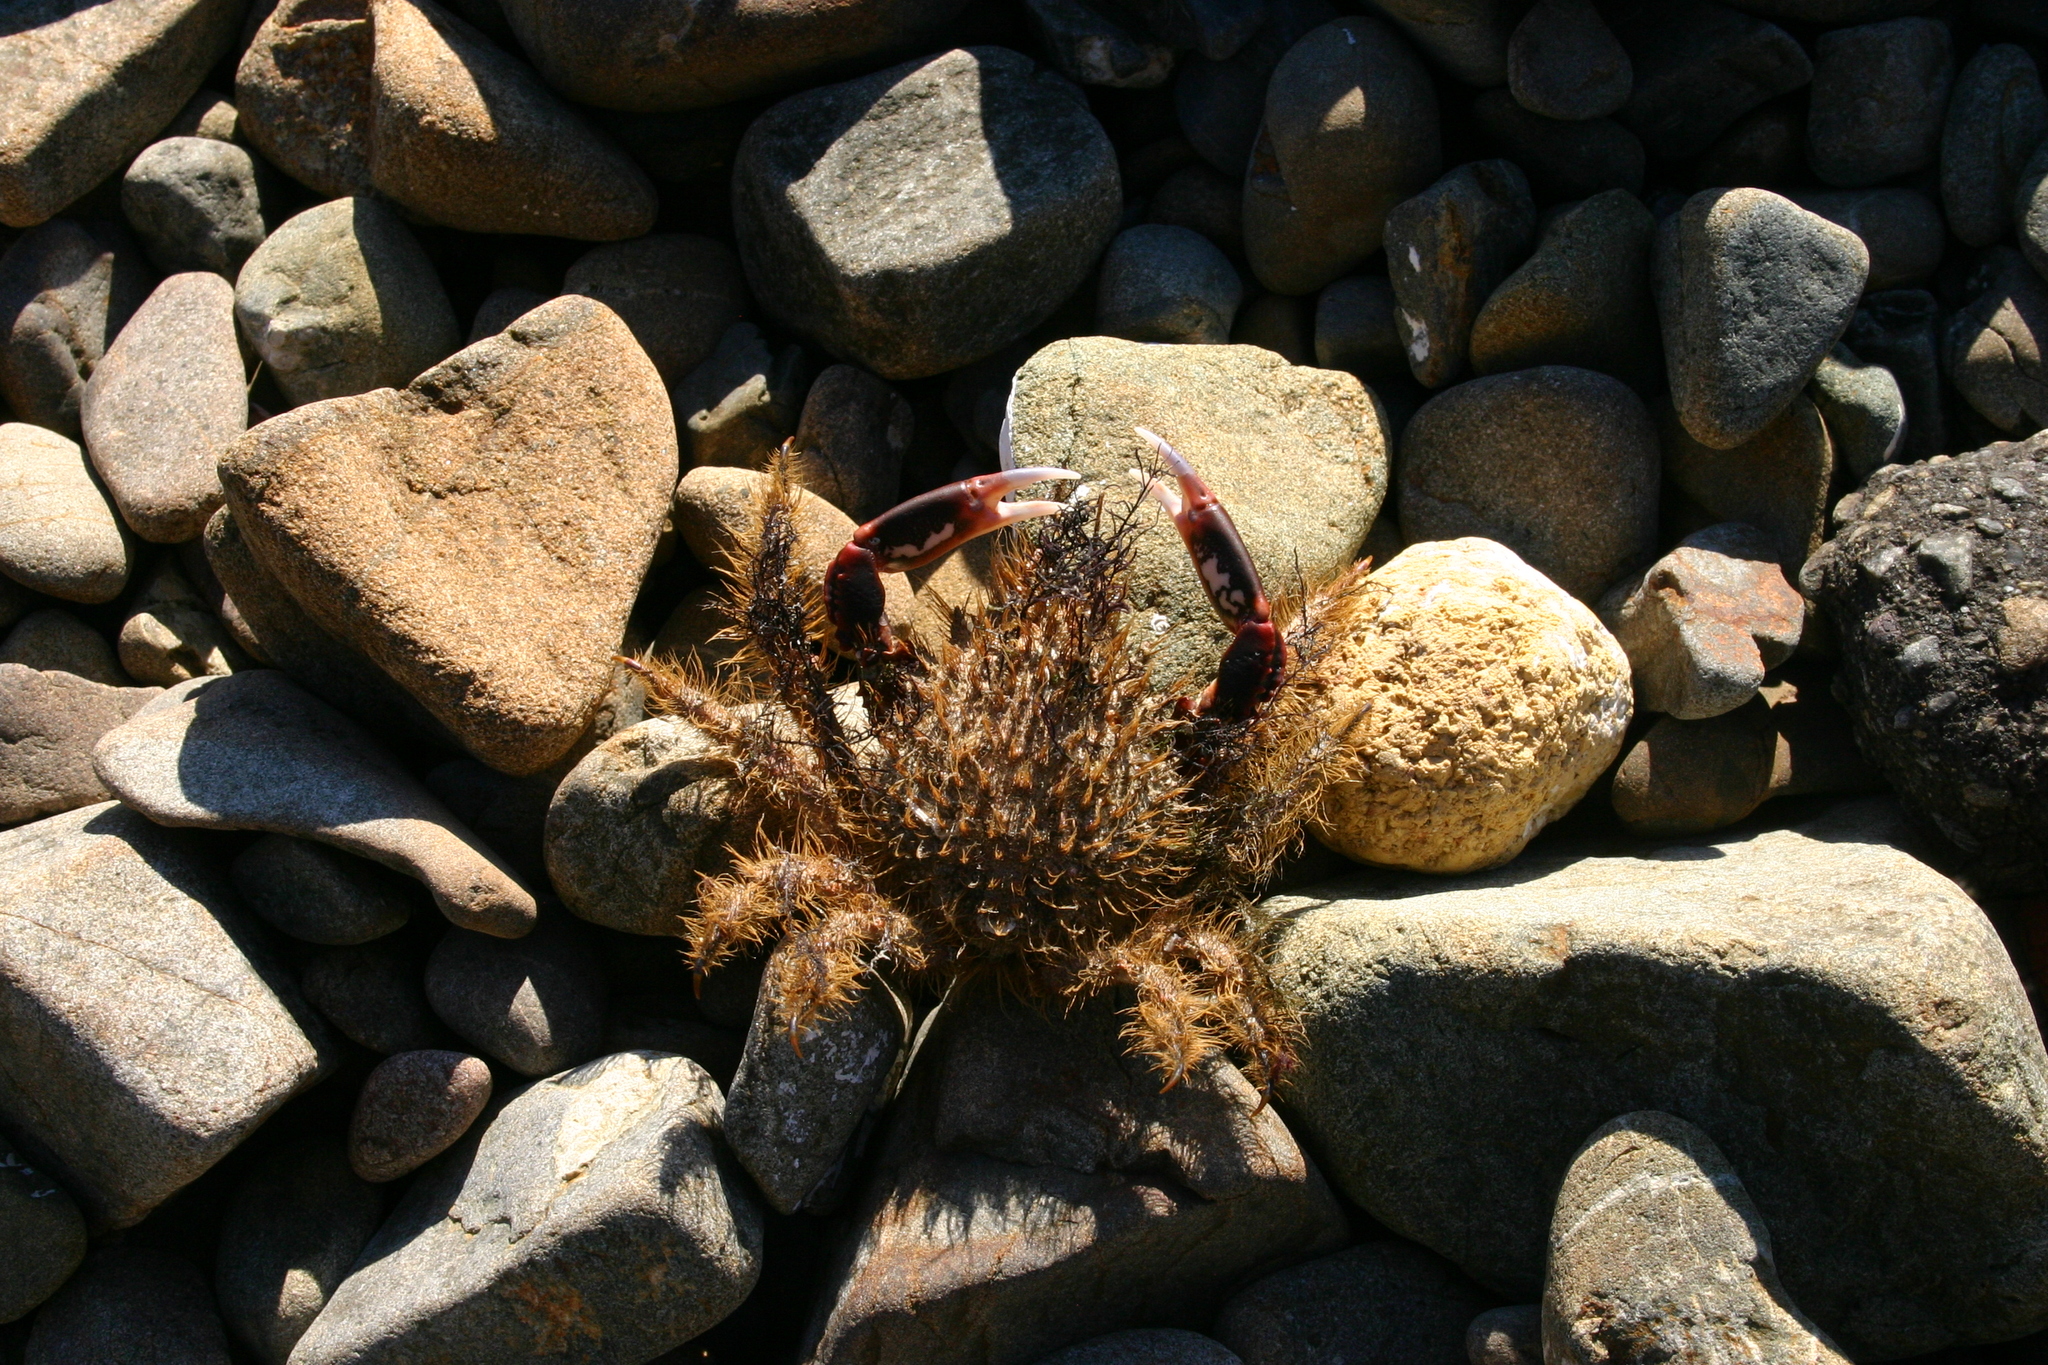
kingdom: Animalia
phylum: Arthropoda
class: Malacostraca
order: Decapoda
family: Majidae
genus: Notomithrax
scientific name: Notomithrax ursus
